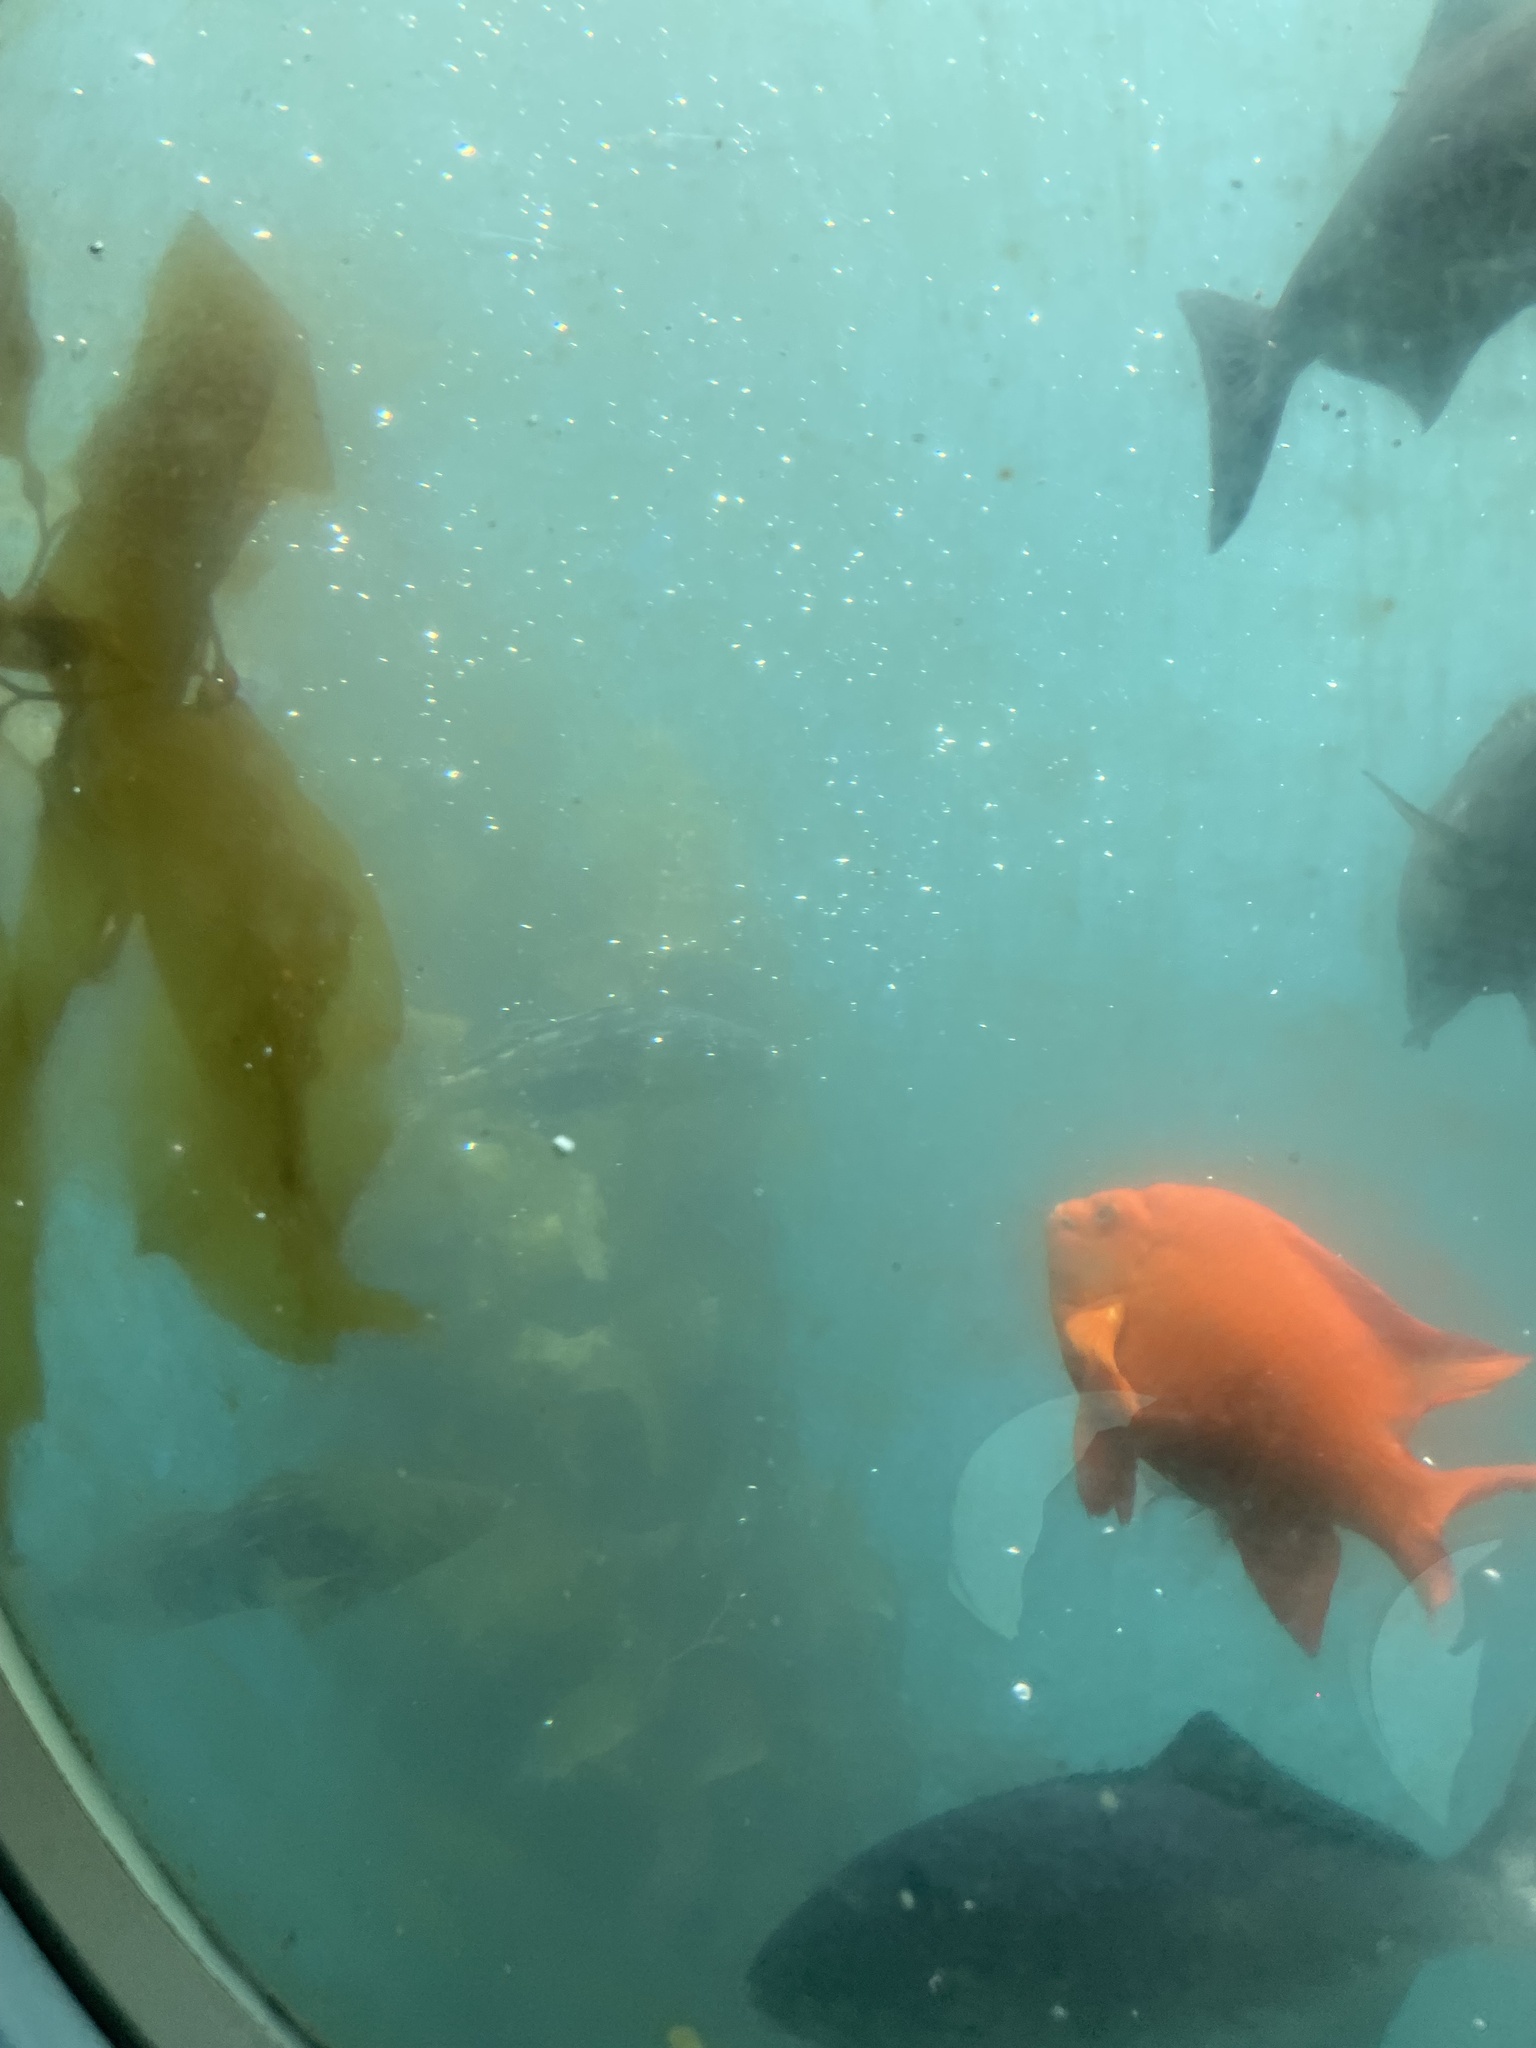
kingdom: Animalia
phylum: Chordata
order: Perciformes
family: Pomacentridae
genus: Hypsypops
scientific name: Hypsypops rubicundus
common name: Garibaldi
